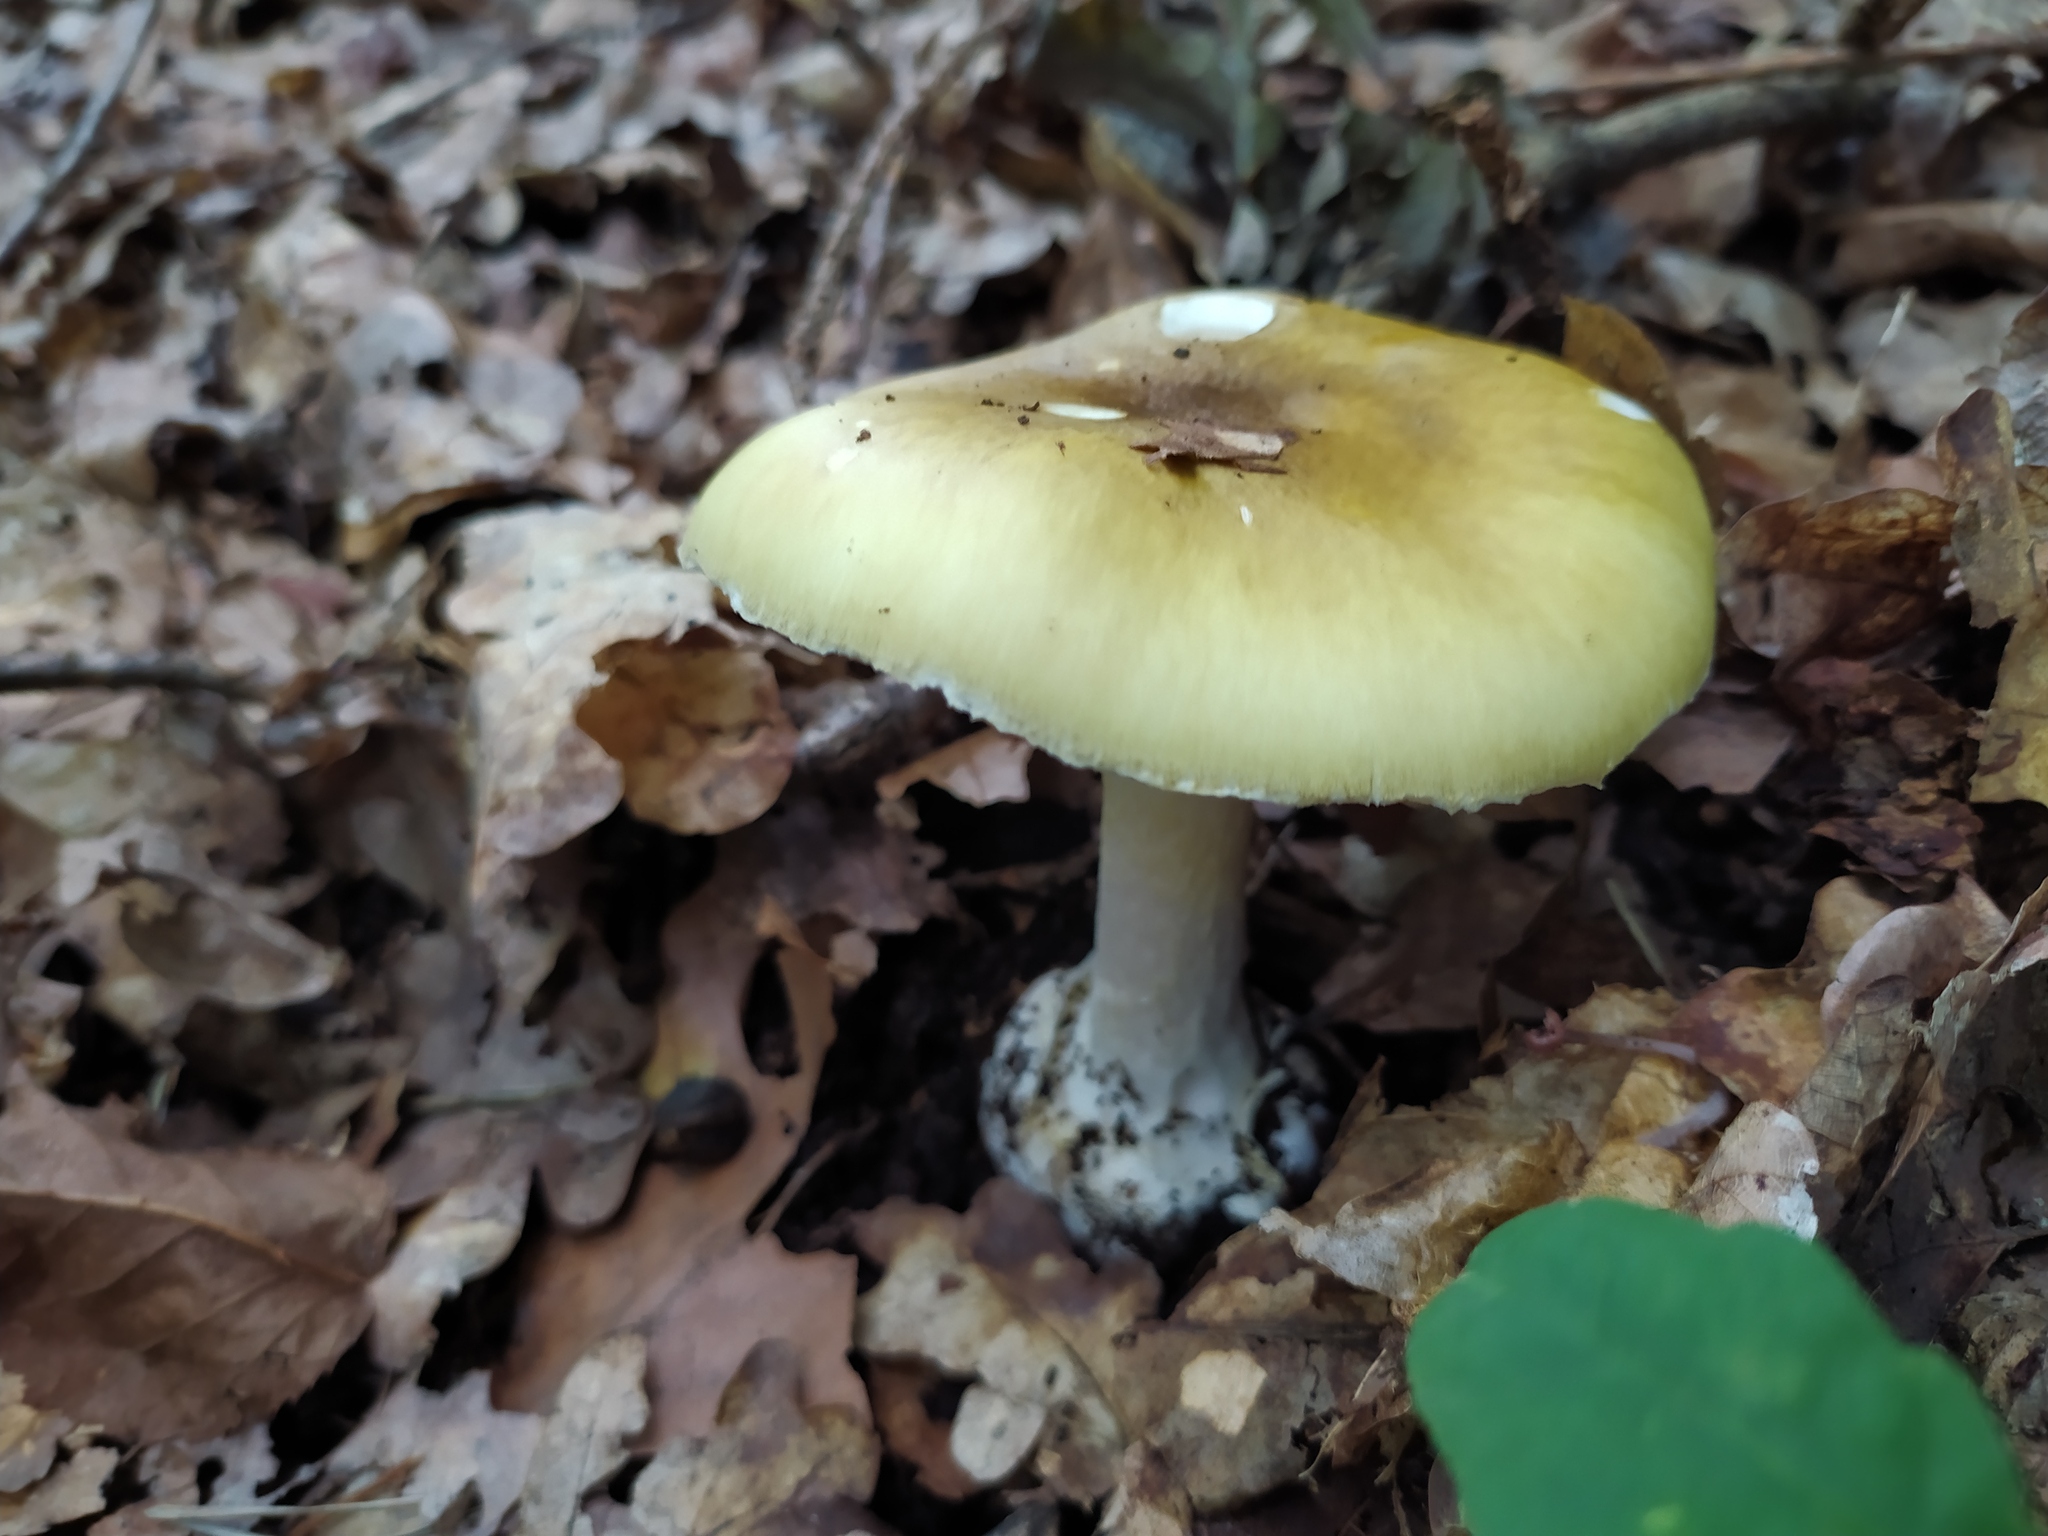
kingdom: Fungi
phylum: Basidiomycota
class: Agaricomycetes
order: Agaricales
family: Amanitaceae
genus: Amanita
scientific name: Amanita phalloides
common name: Death cap
